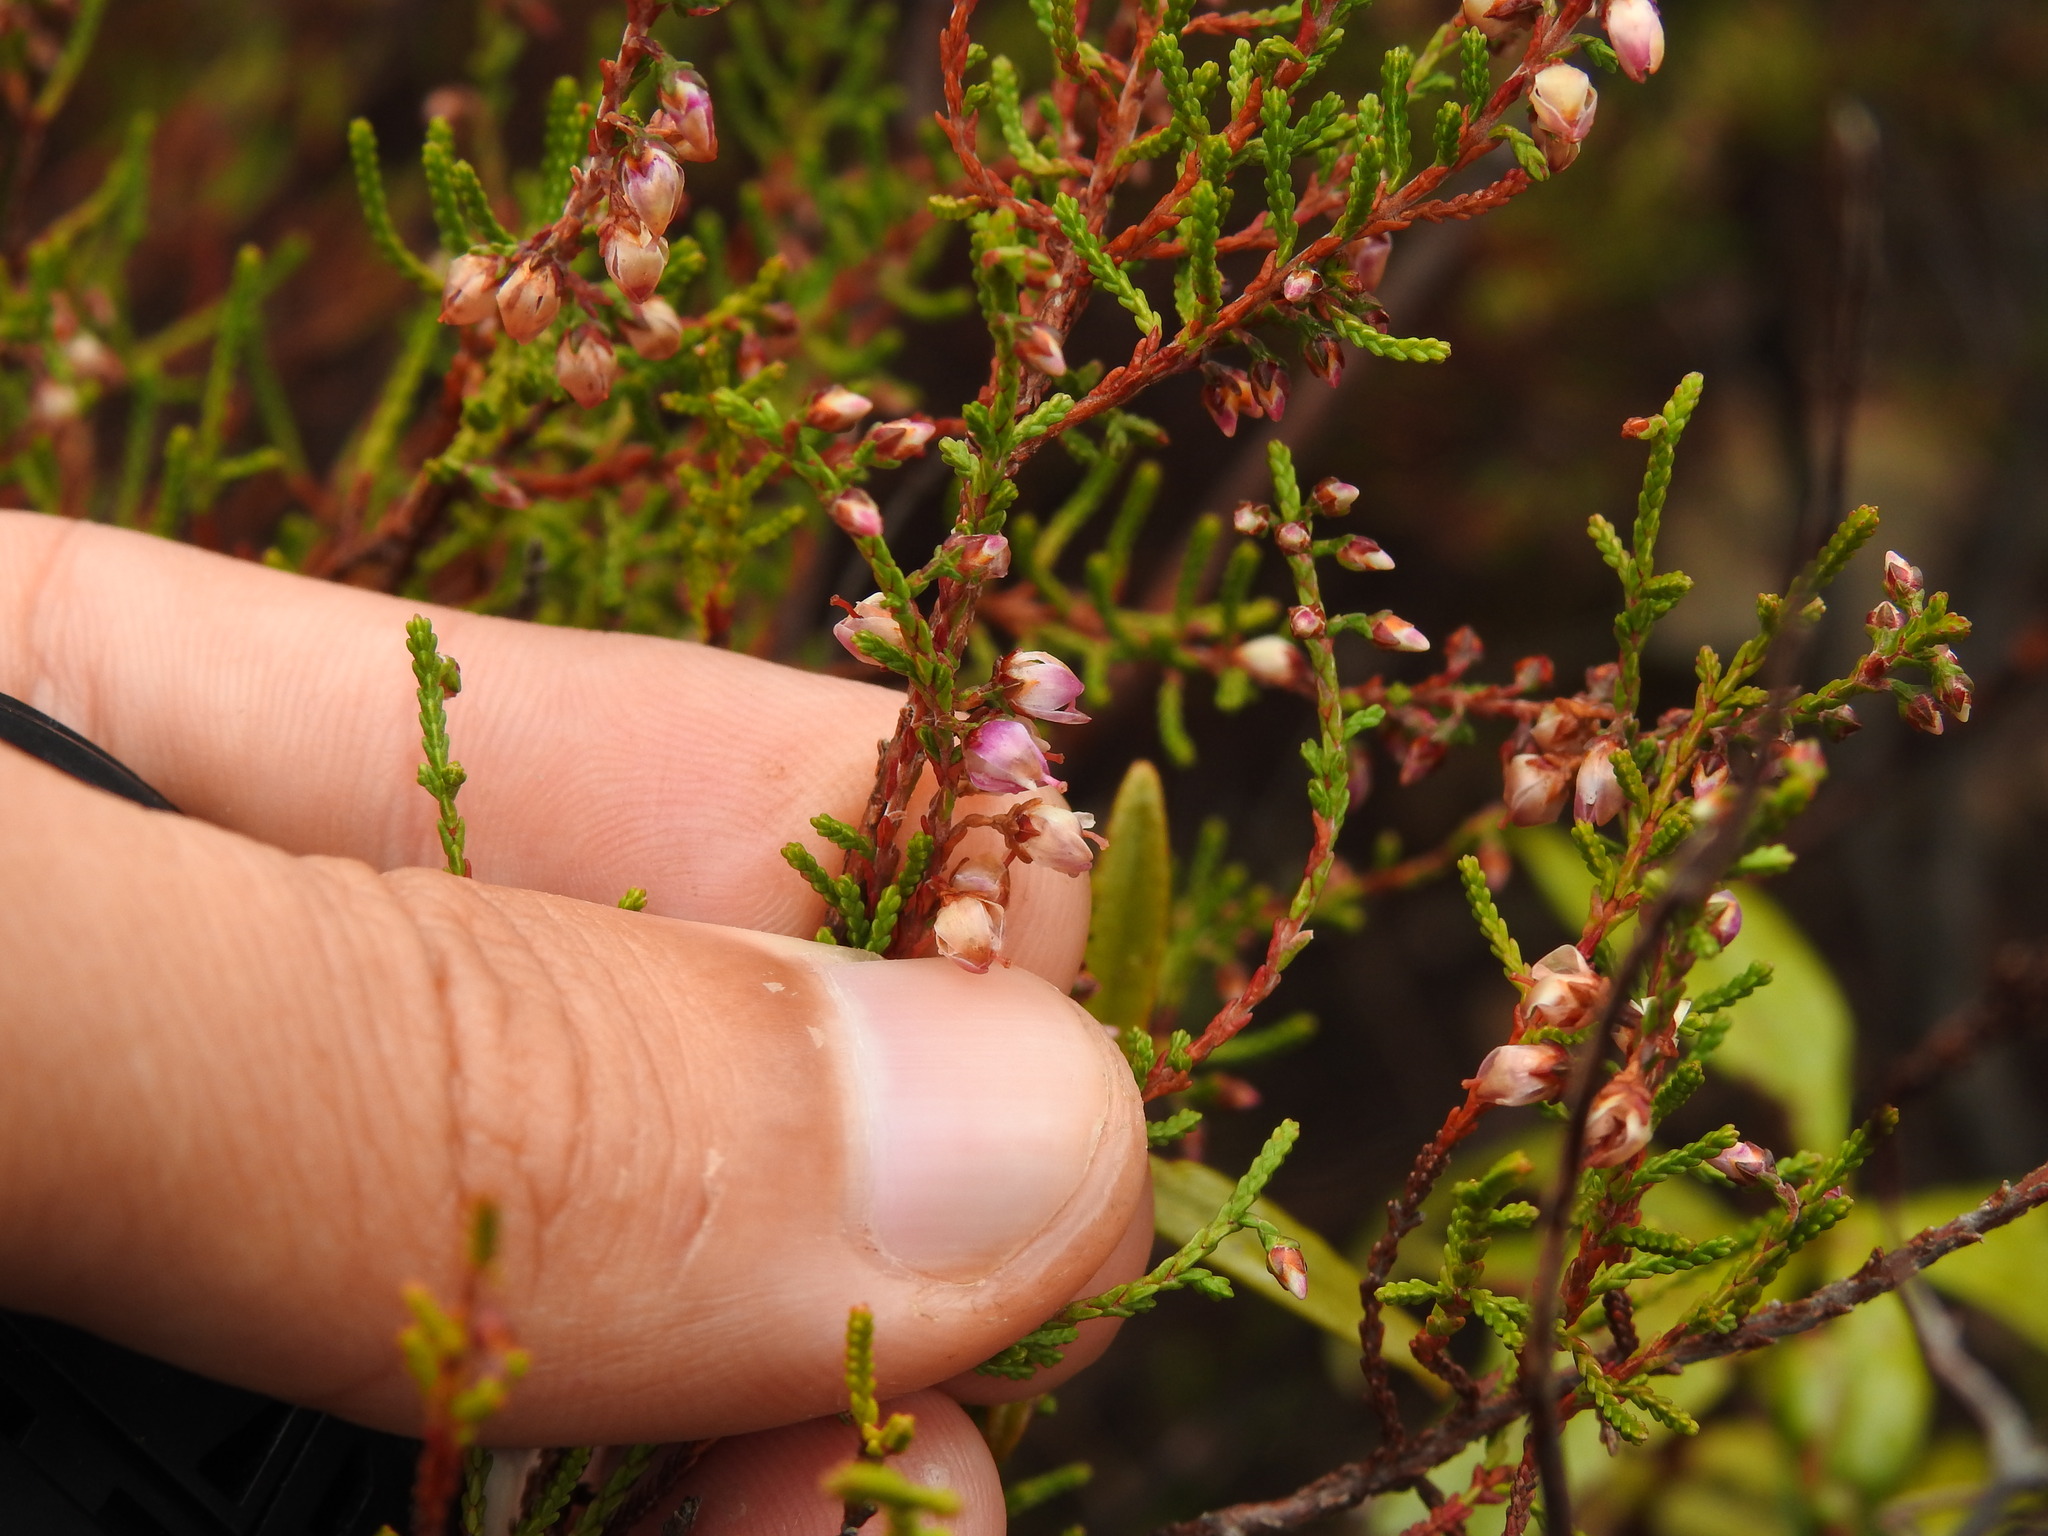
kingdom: Plantae
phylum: Tracheophyta
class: Magnoliopsida
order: Ericales
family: Ericaceae
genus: Calluna
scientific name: Calluna vulgaris
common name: Heather
